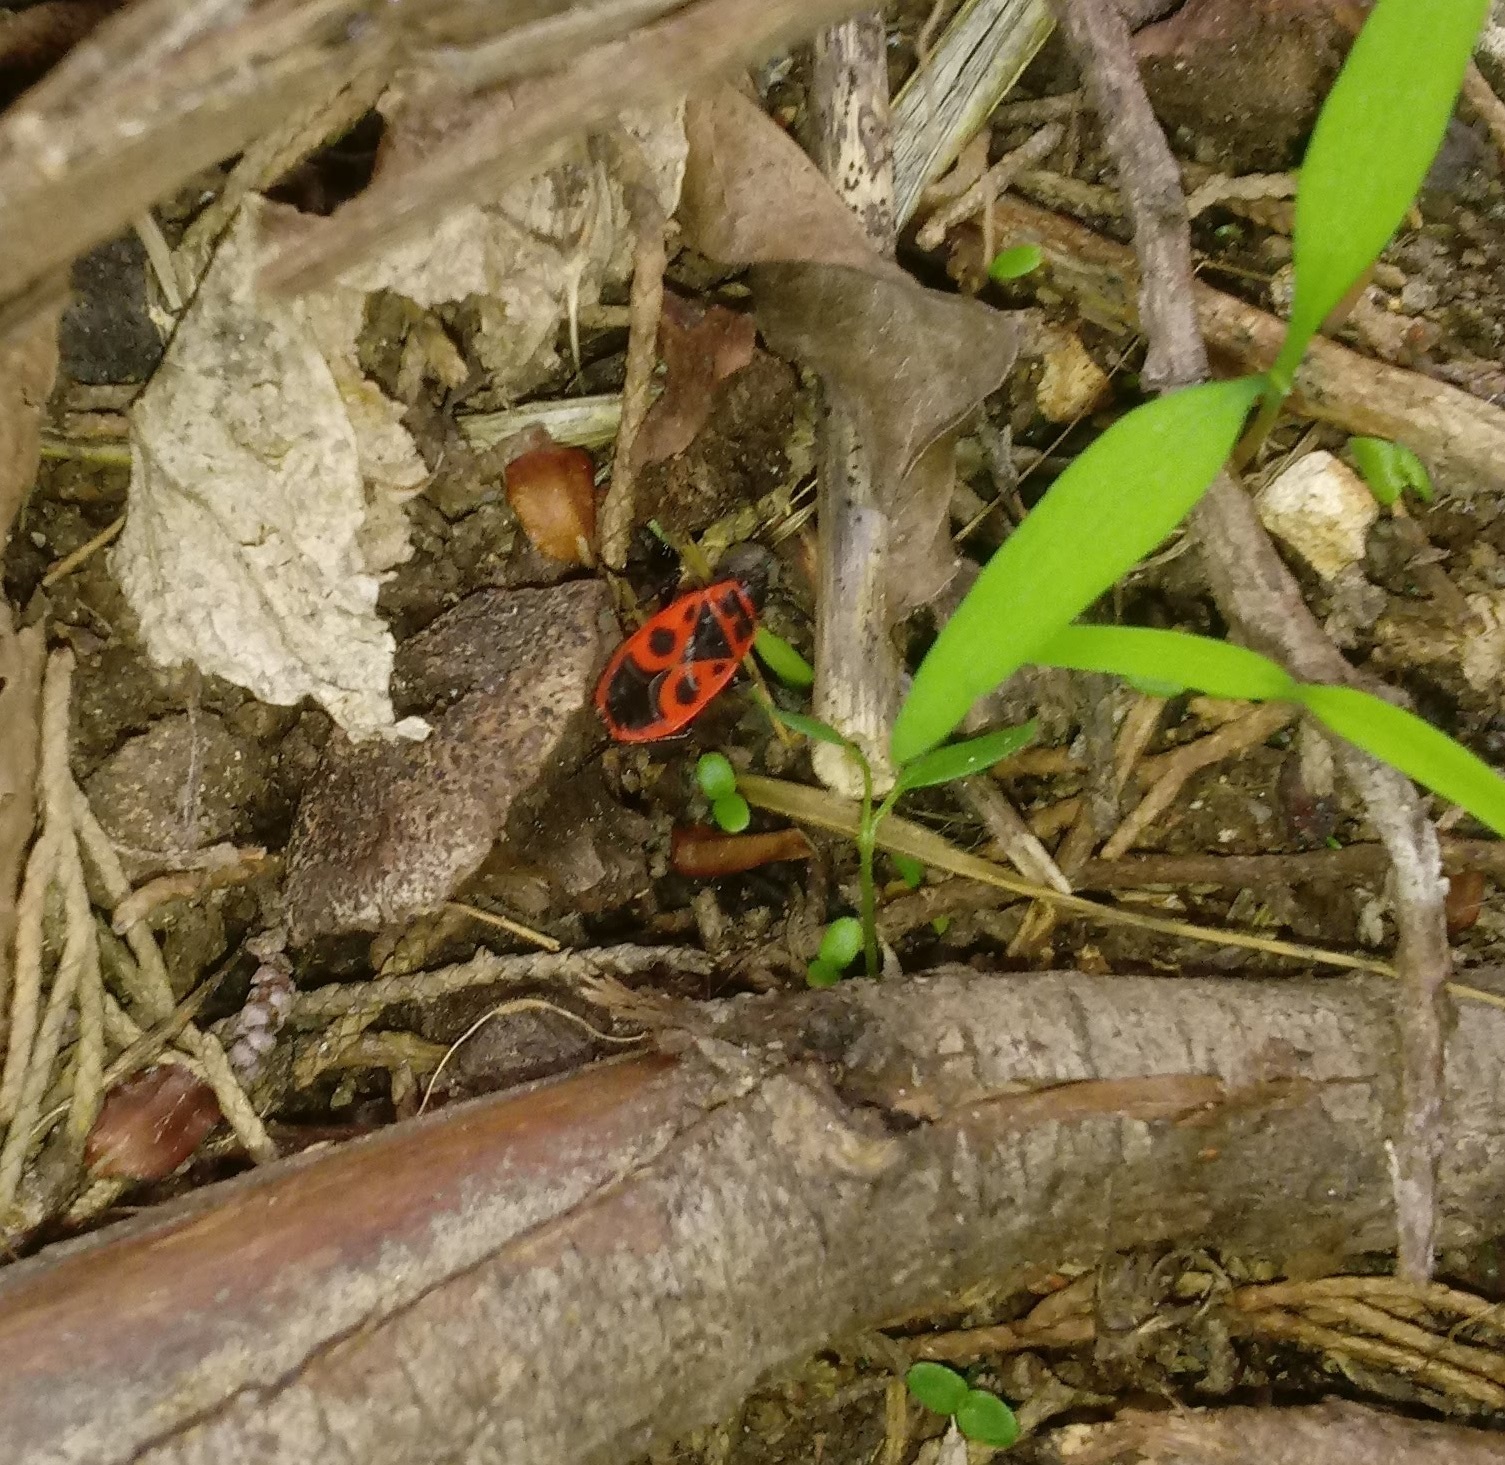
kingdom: Animalia
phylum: Arthropoda
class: Insecta
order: Hemiptera
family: Pyrrhocoridae
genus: Pyrrhocoris
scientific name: Pyrrhocoris apterus
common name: Firebug
